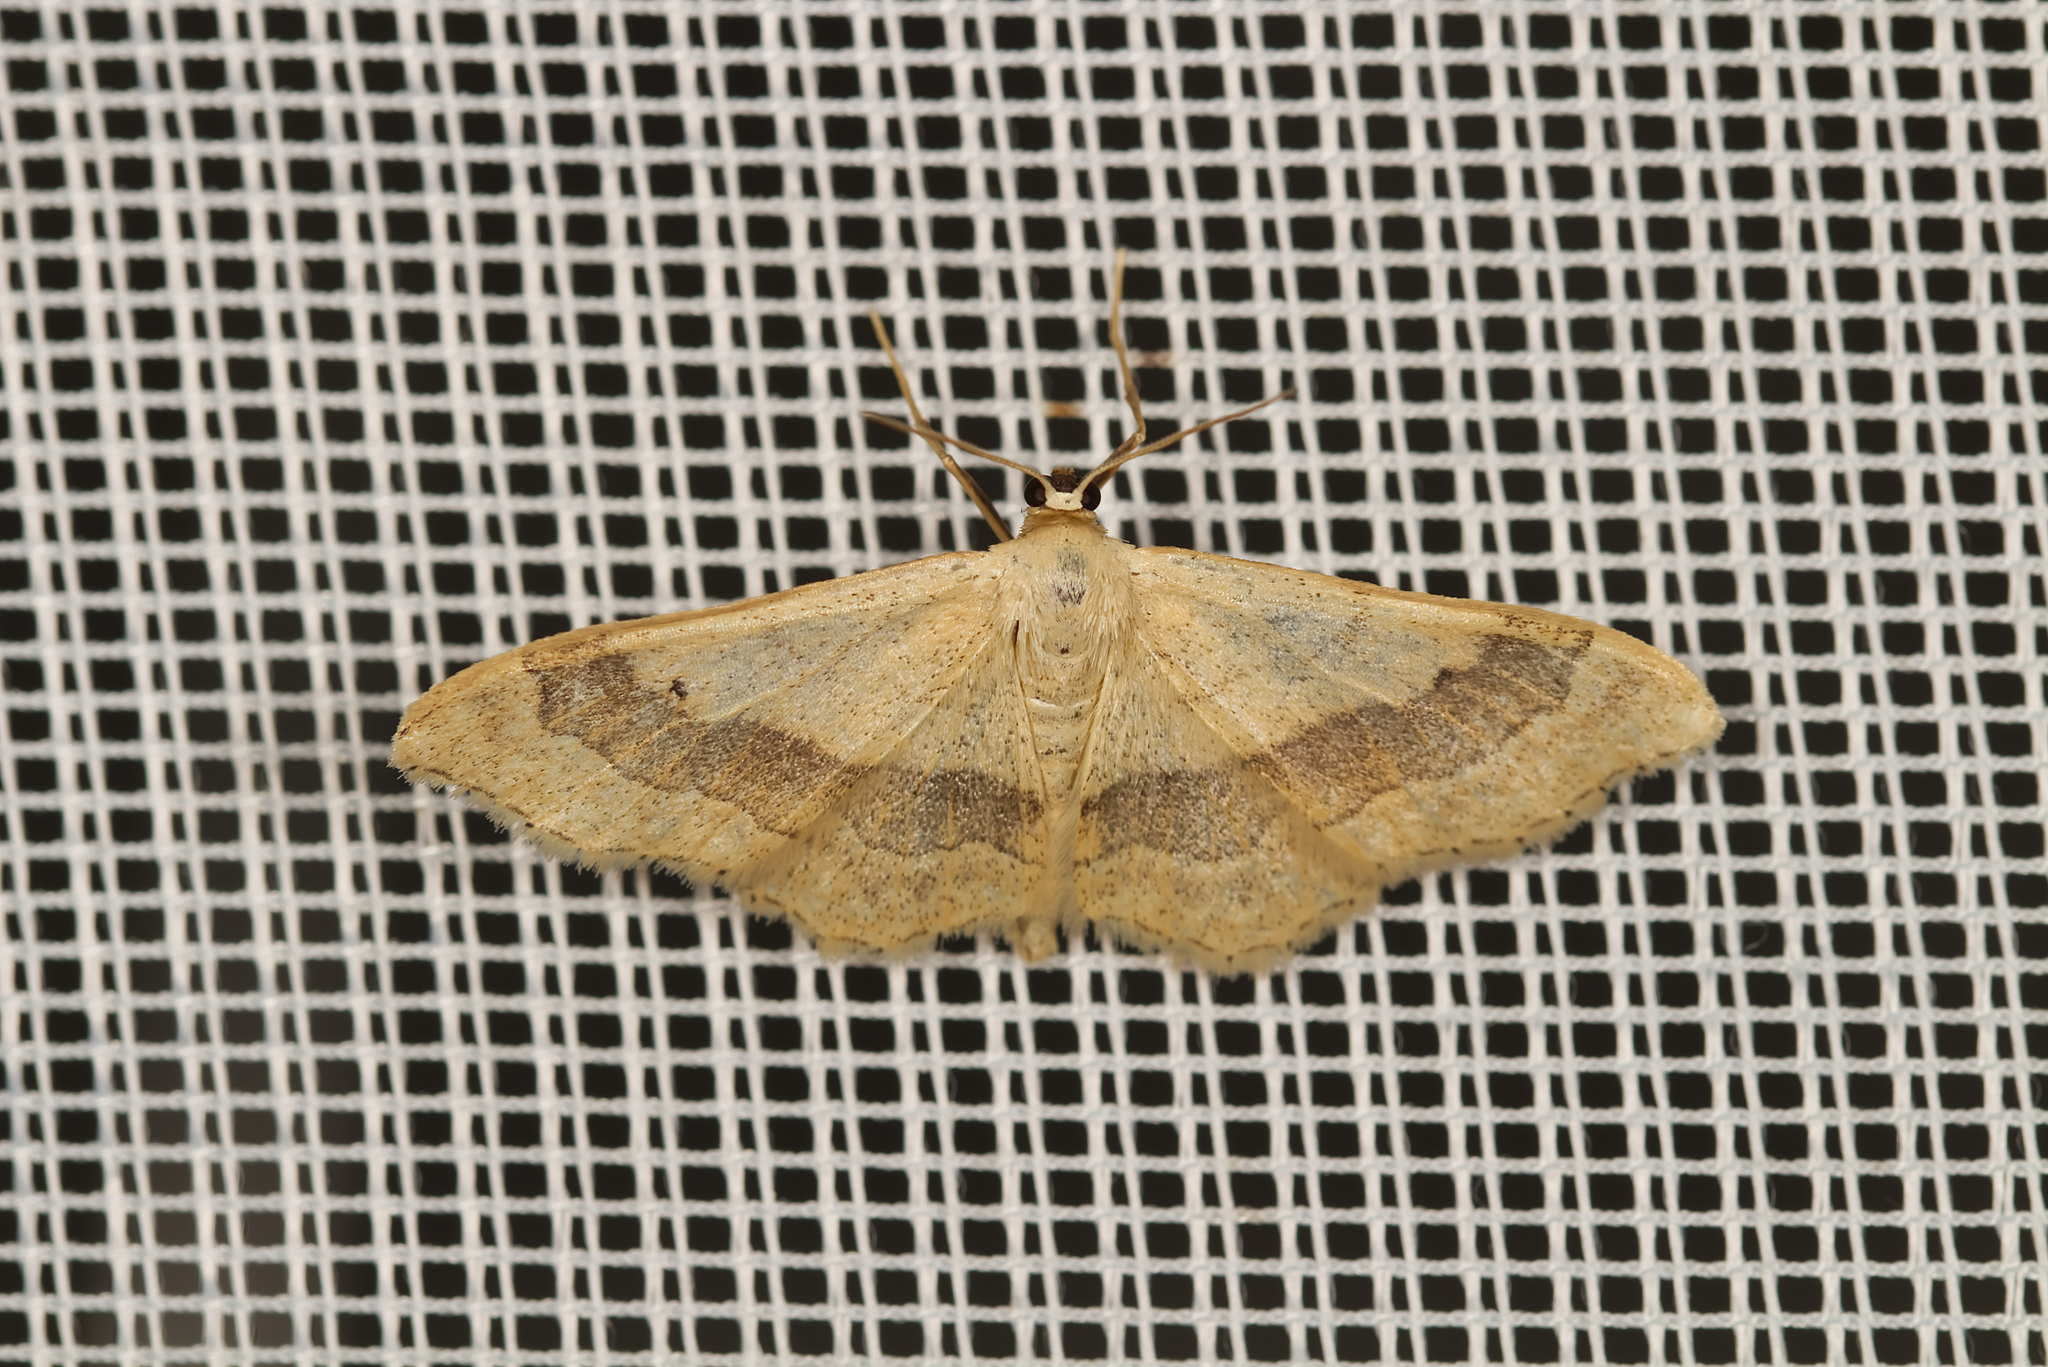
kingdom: Animalia
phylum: Arthropoda
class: Insecta
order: Lepidoptera
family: Geometridae
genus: Idaea
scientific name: Idaea aversata
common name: Riband wave
